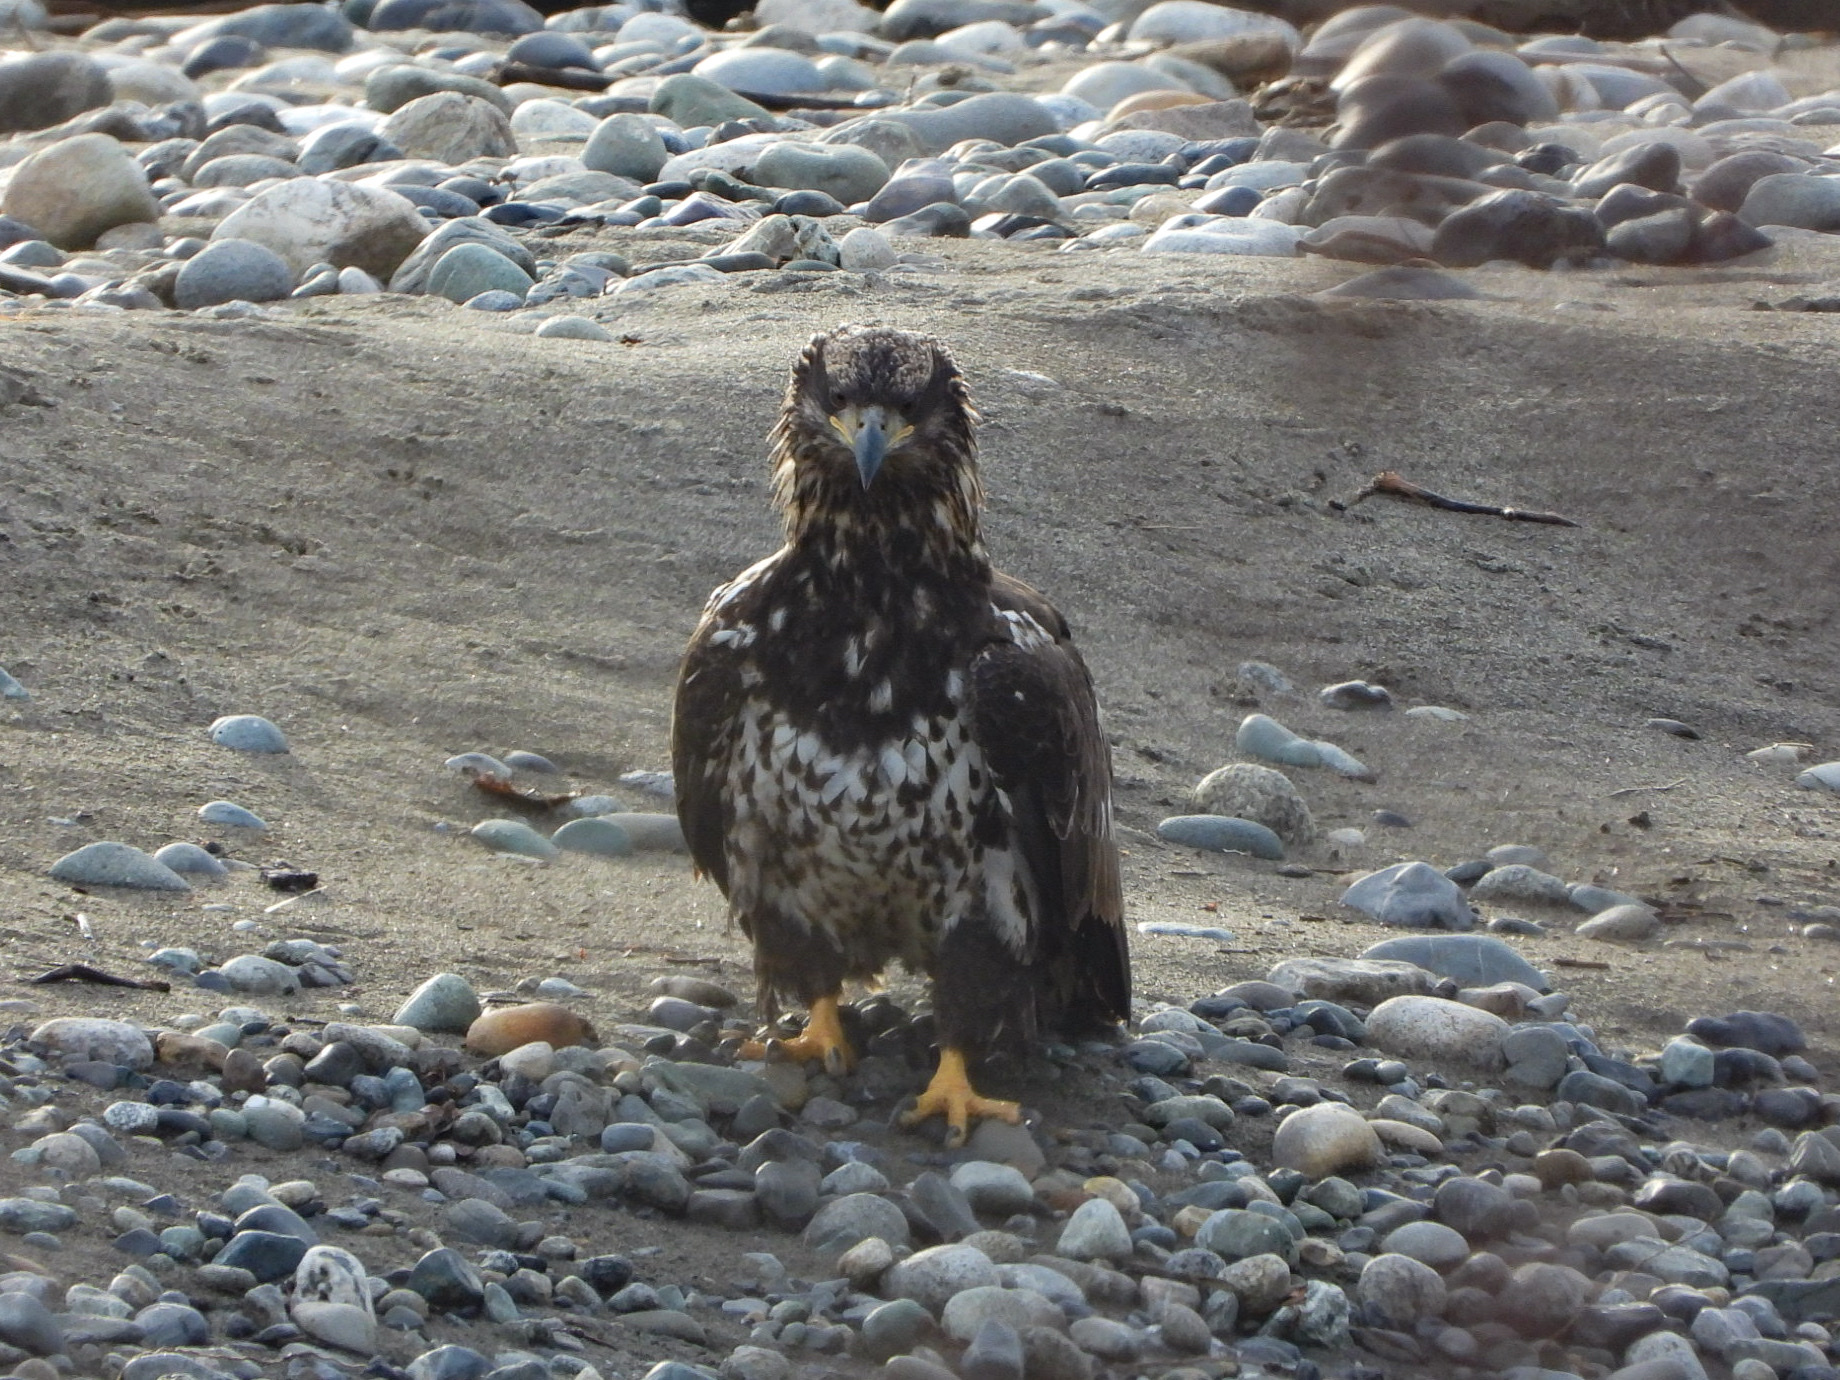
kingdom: Animalia
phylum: Chordata
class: Aves
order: Accipitriformes
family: Accipitridae
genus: Haliaeetus
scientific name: Haliaeetus leucocephalus
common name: Bald eagle
